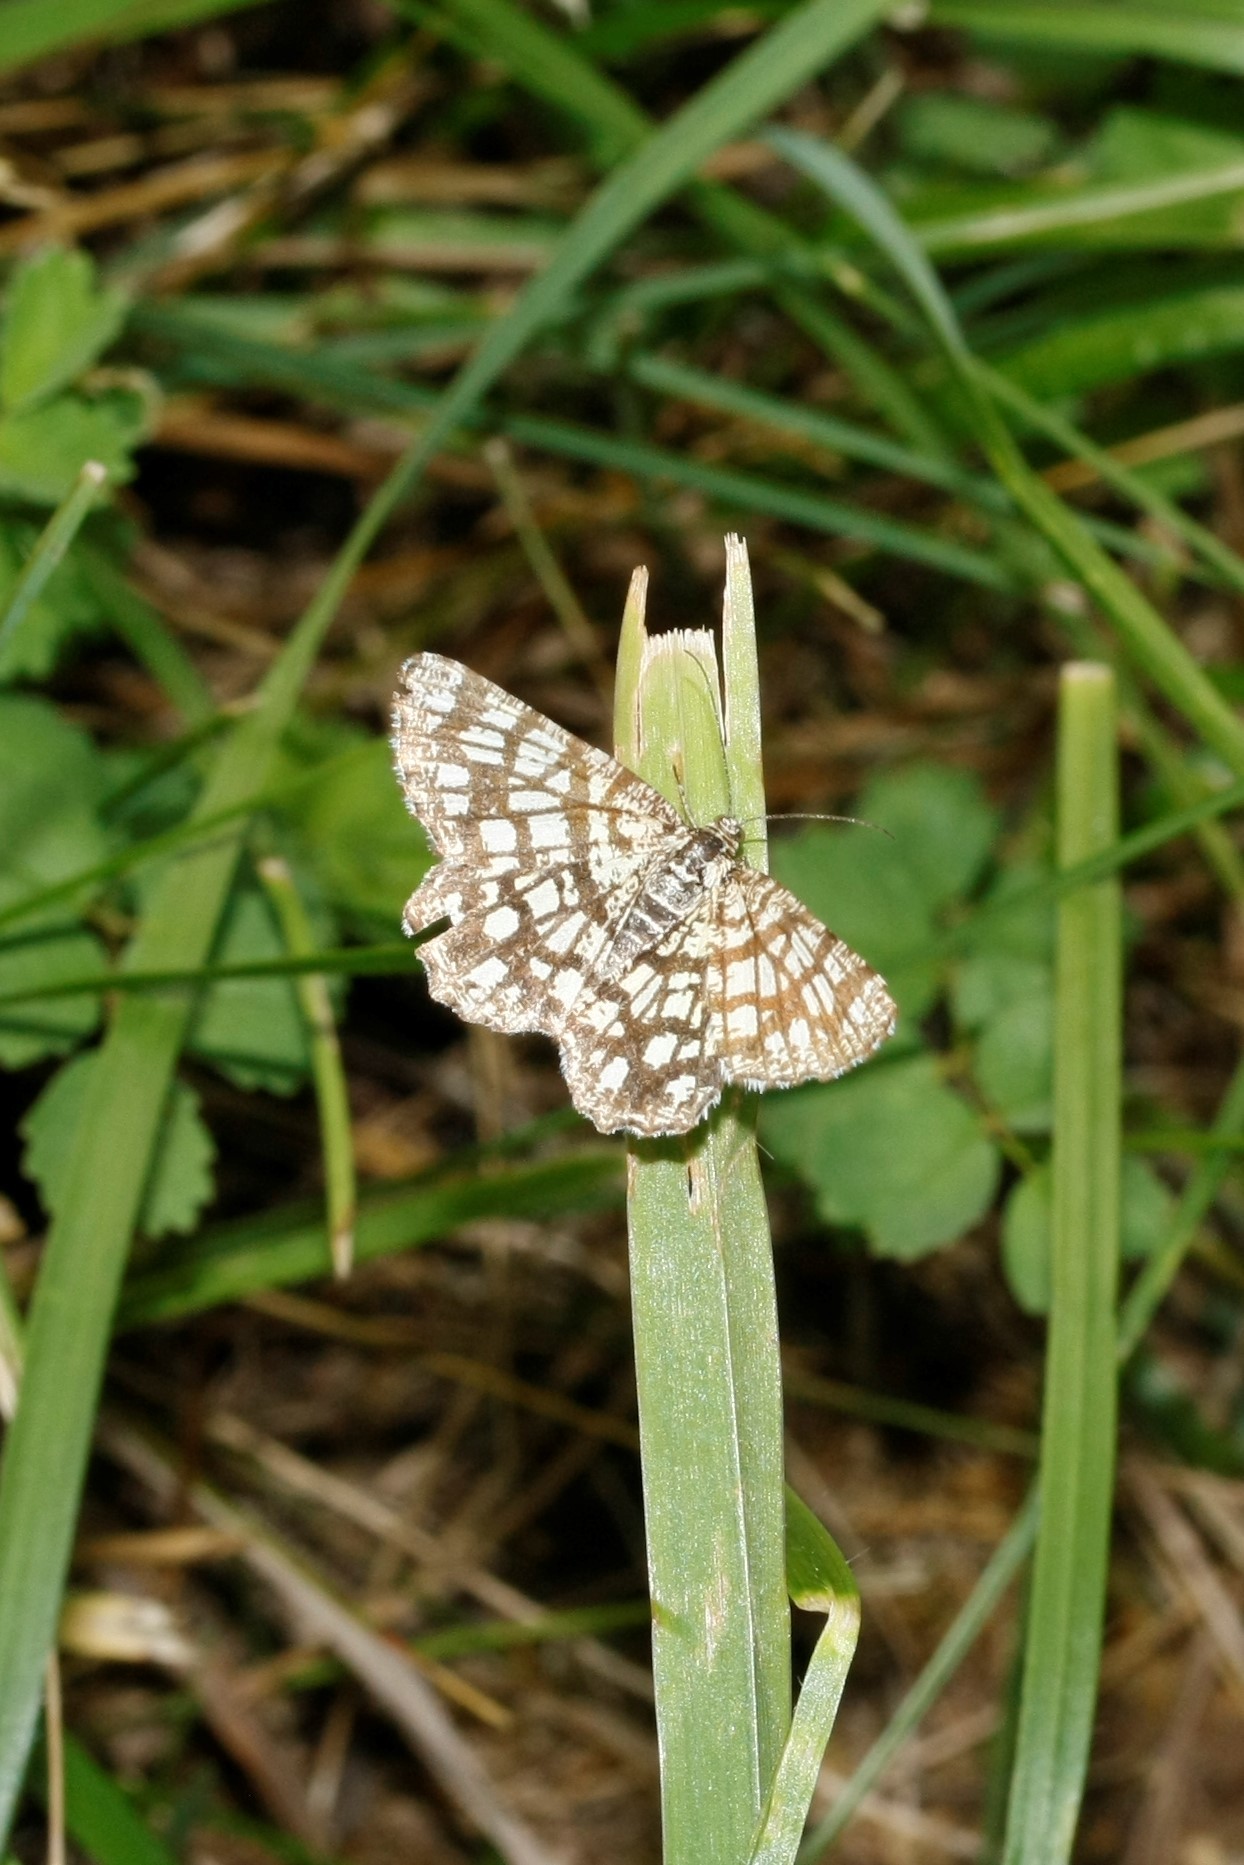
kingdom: Animalia
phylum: Arthropoda
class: Insecta
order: Lepidoptera
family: Geometridae
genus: Chiasmia
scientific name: Chiasmia clathrata
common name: Latticed heath
